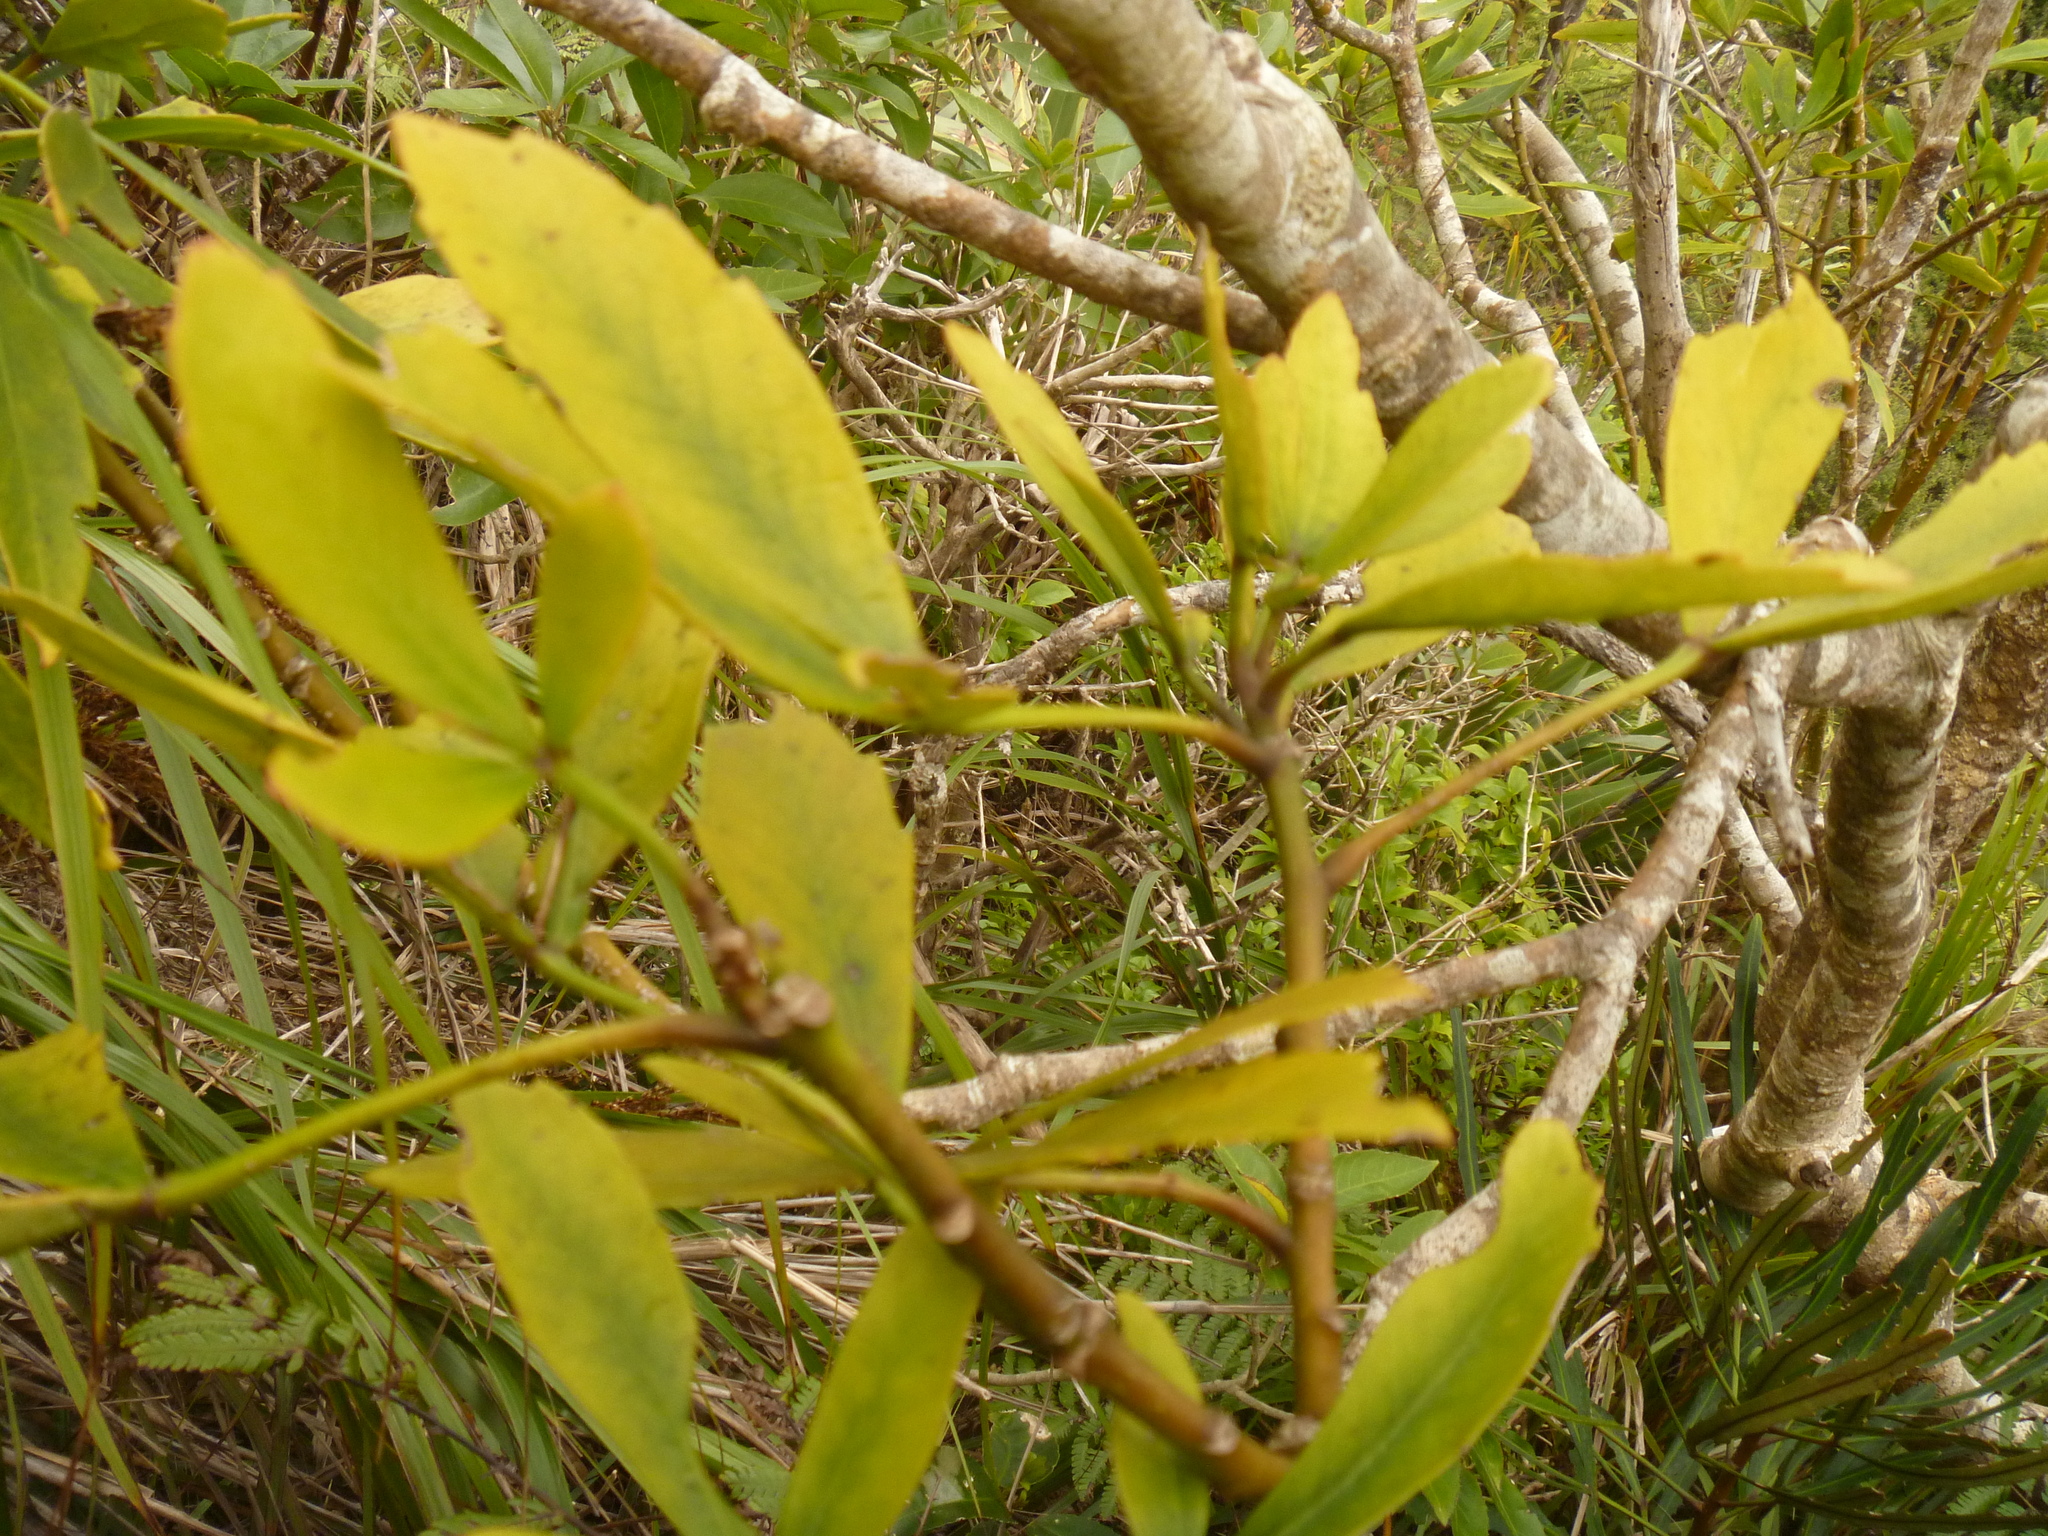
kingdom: Plantae
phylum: Tracheophyta
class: Magnoliopsida
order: Apiales
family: Araliaceae
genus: Pseudopanax
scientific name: Pseudopanax lessonii
